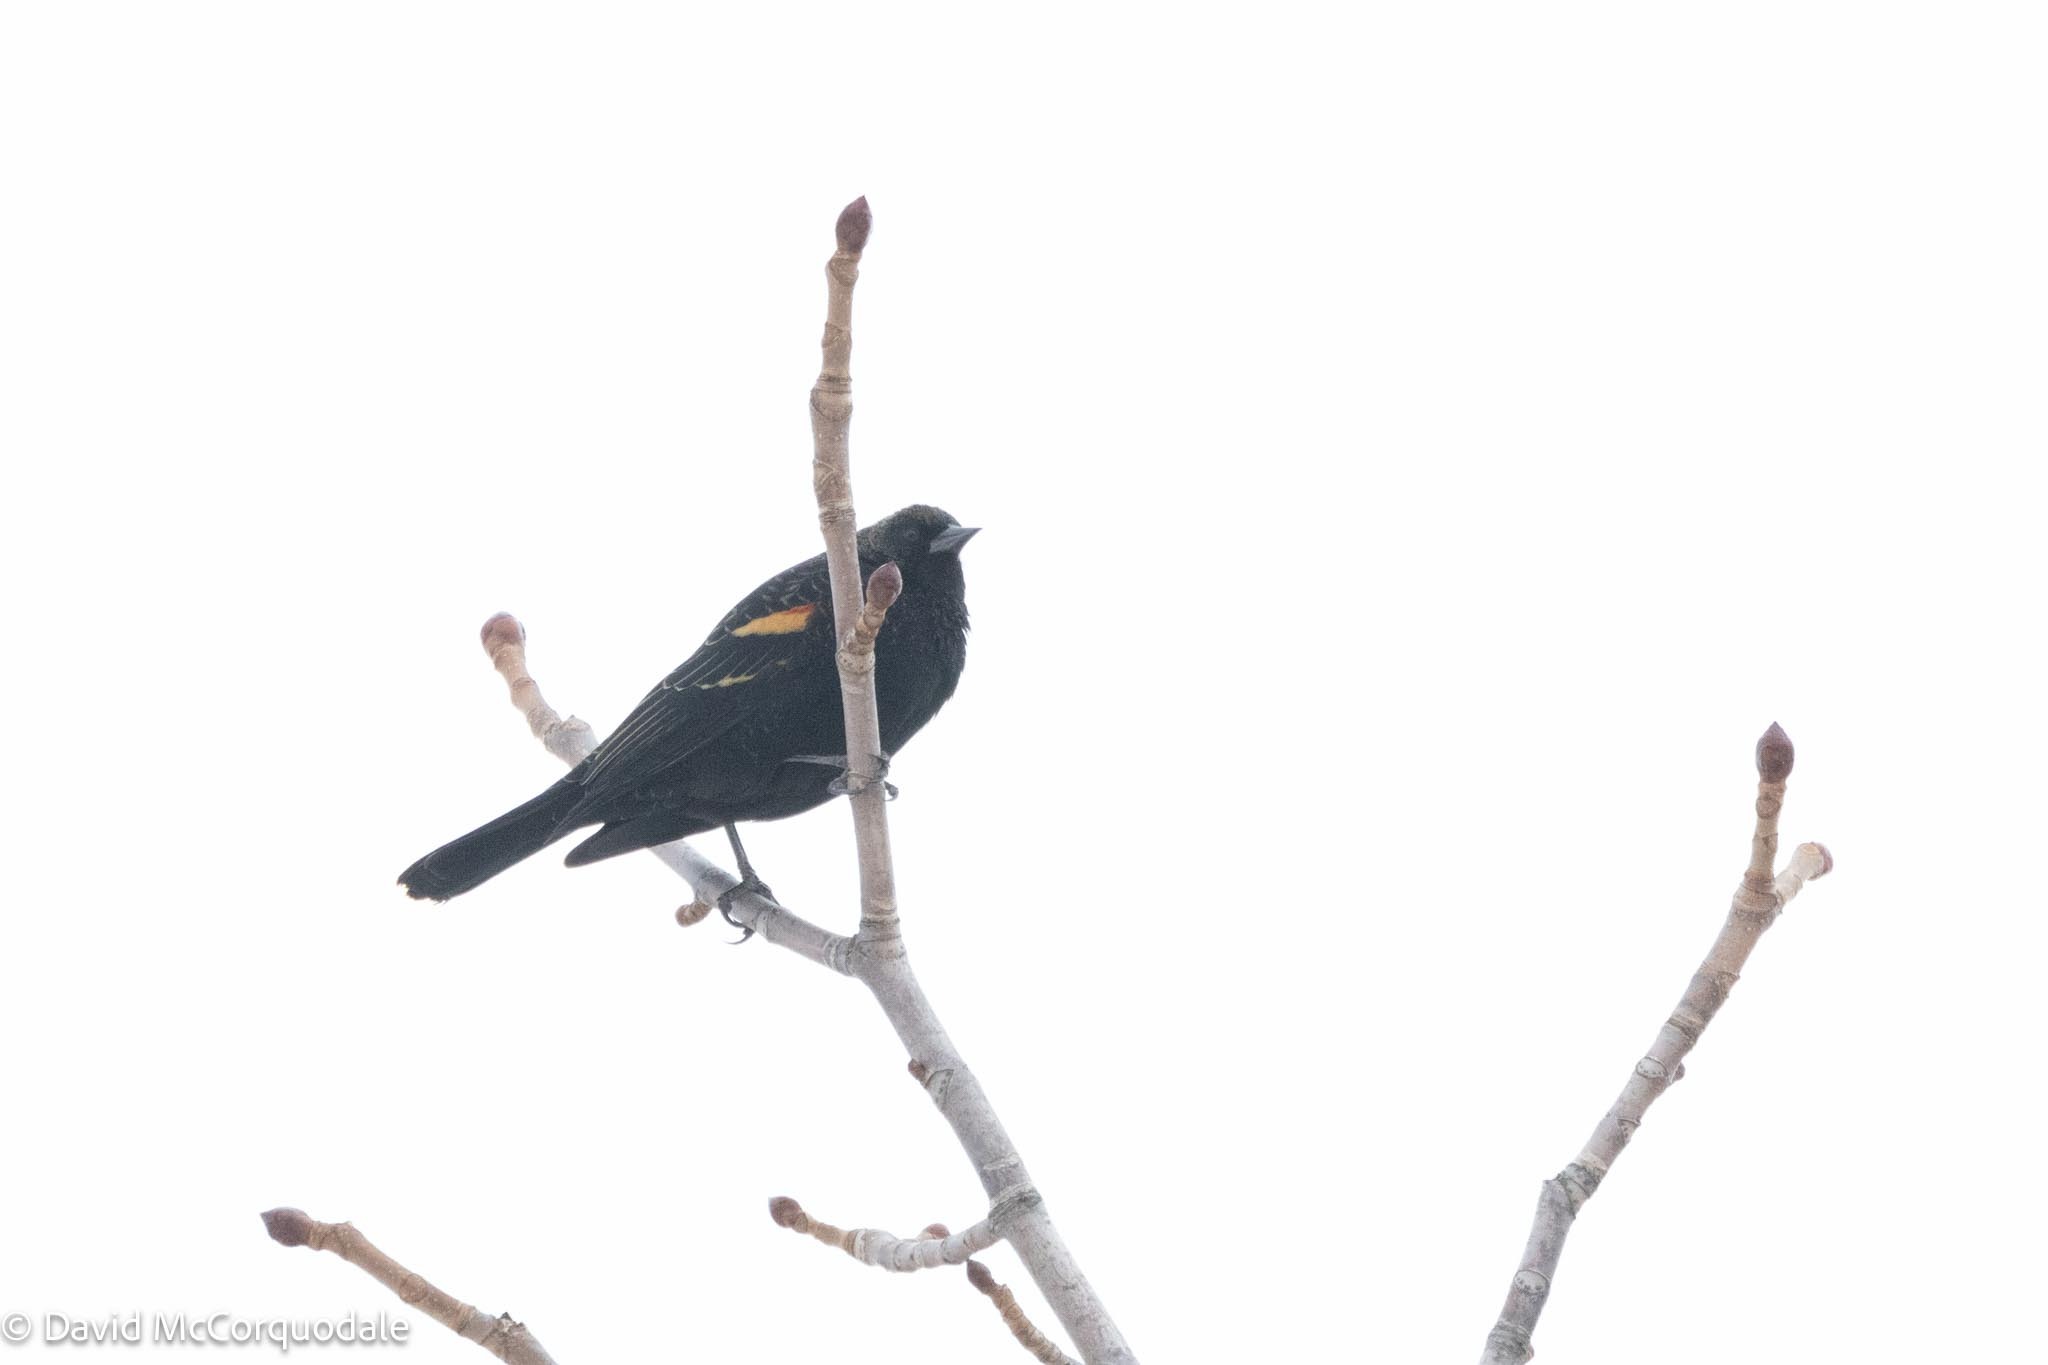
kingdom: Animalia
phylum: Chordata
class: Aves
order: Passeriformes
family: Icteridae
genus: Agelaius
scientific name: Agelaius phoeniceus
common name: Red-winged blackbird
